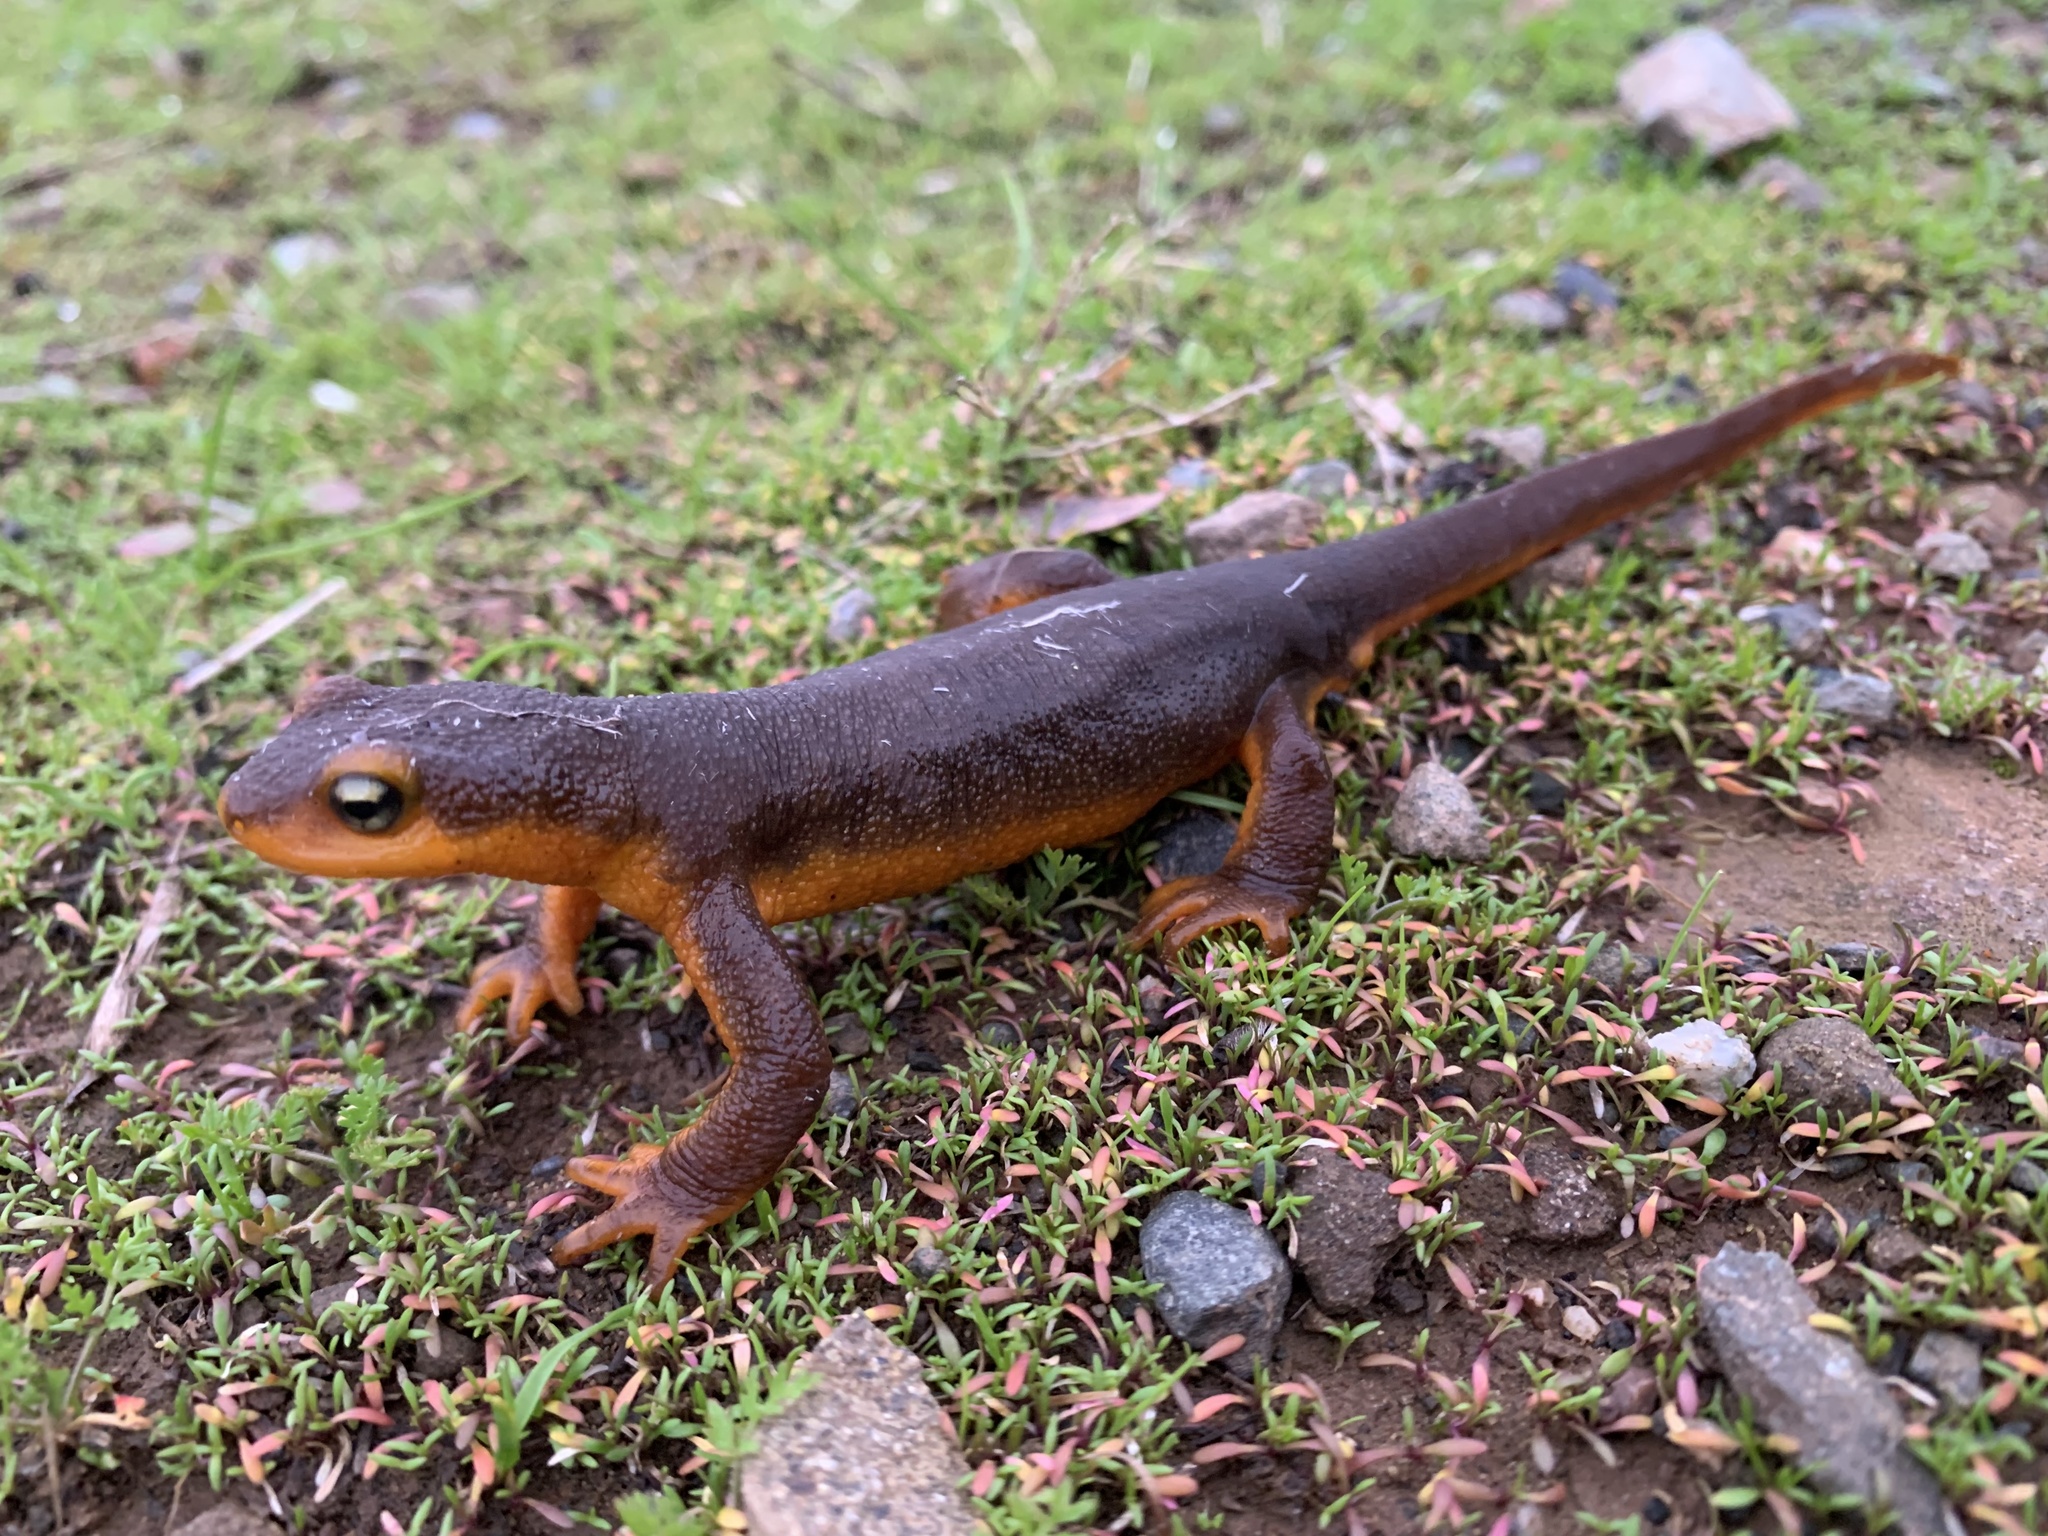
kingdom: Animalia
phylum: Chordata
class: Amphibia
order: Caudata
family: Salamandridae
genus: Taricha
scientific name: Taricha torosa
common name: California newt
